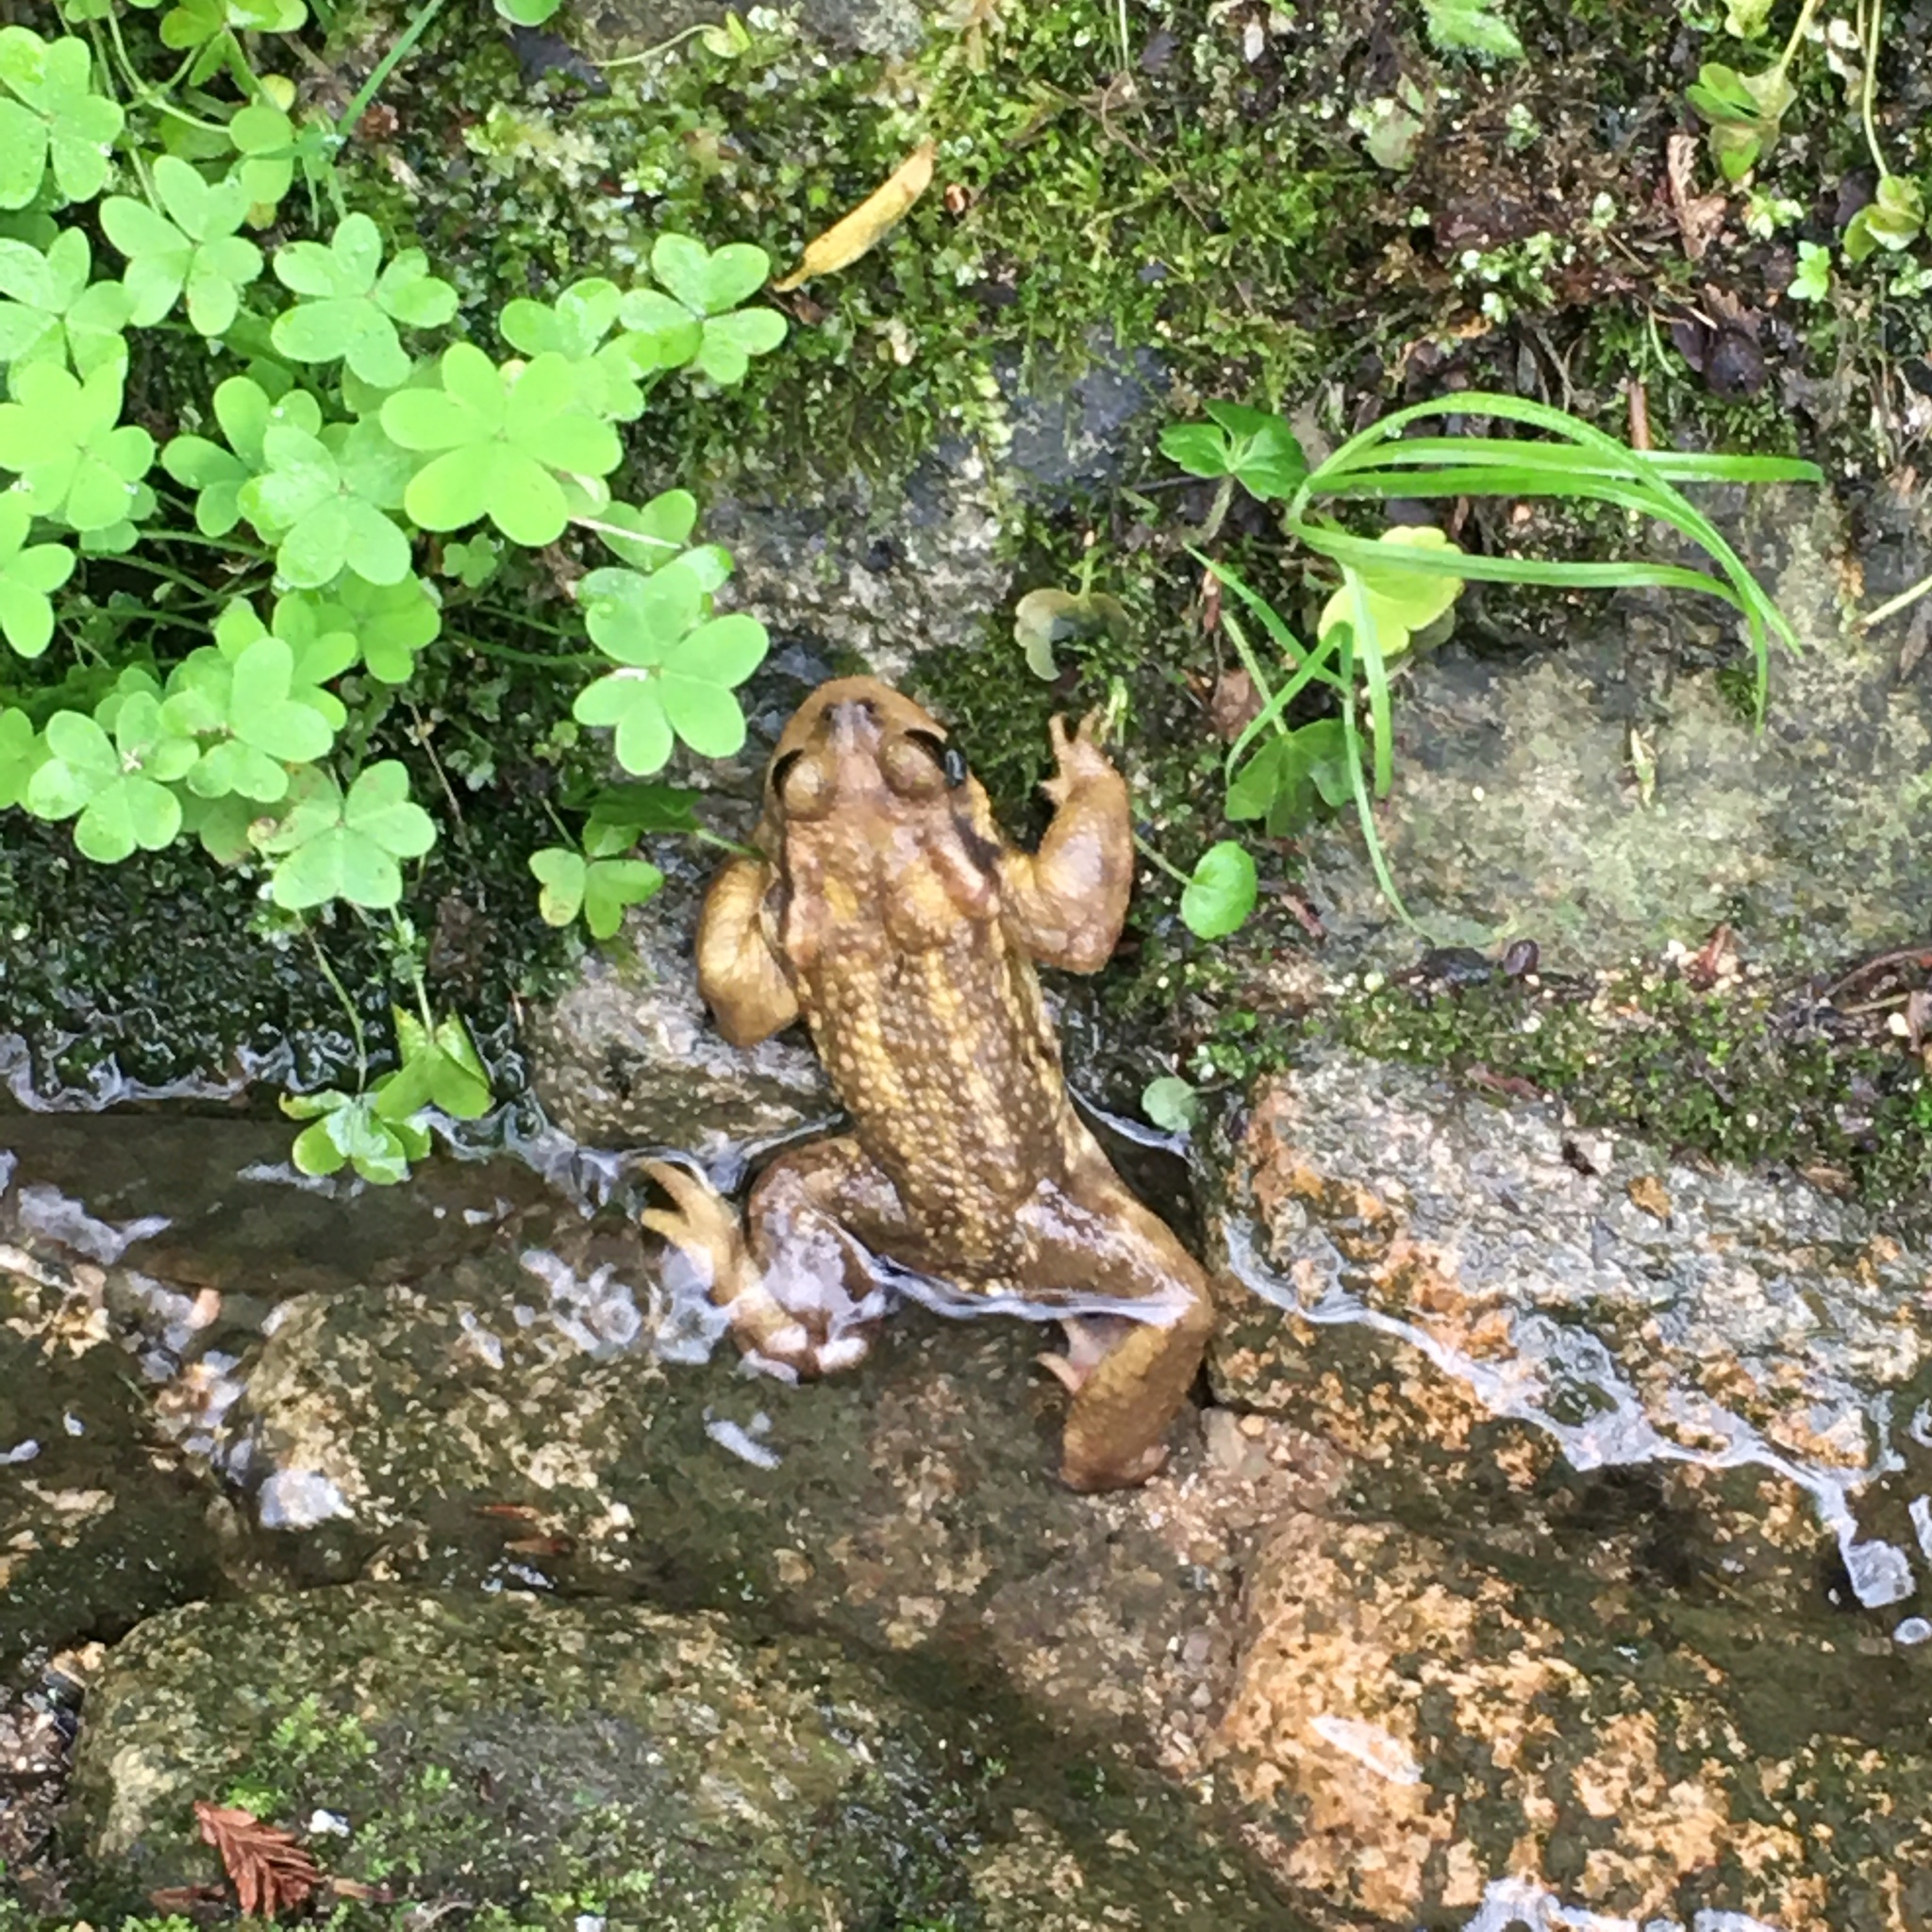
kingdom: Animalia
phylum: Chordata
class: Amphibia
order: Anura
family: Bufonidae
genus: Bufo
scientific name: Bufo spinosus
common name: Western common toad
